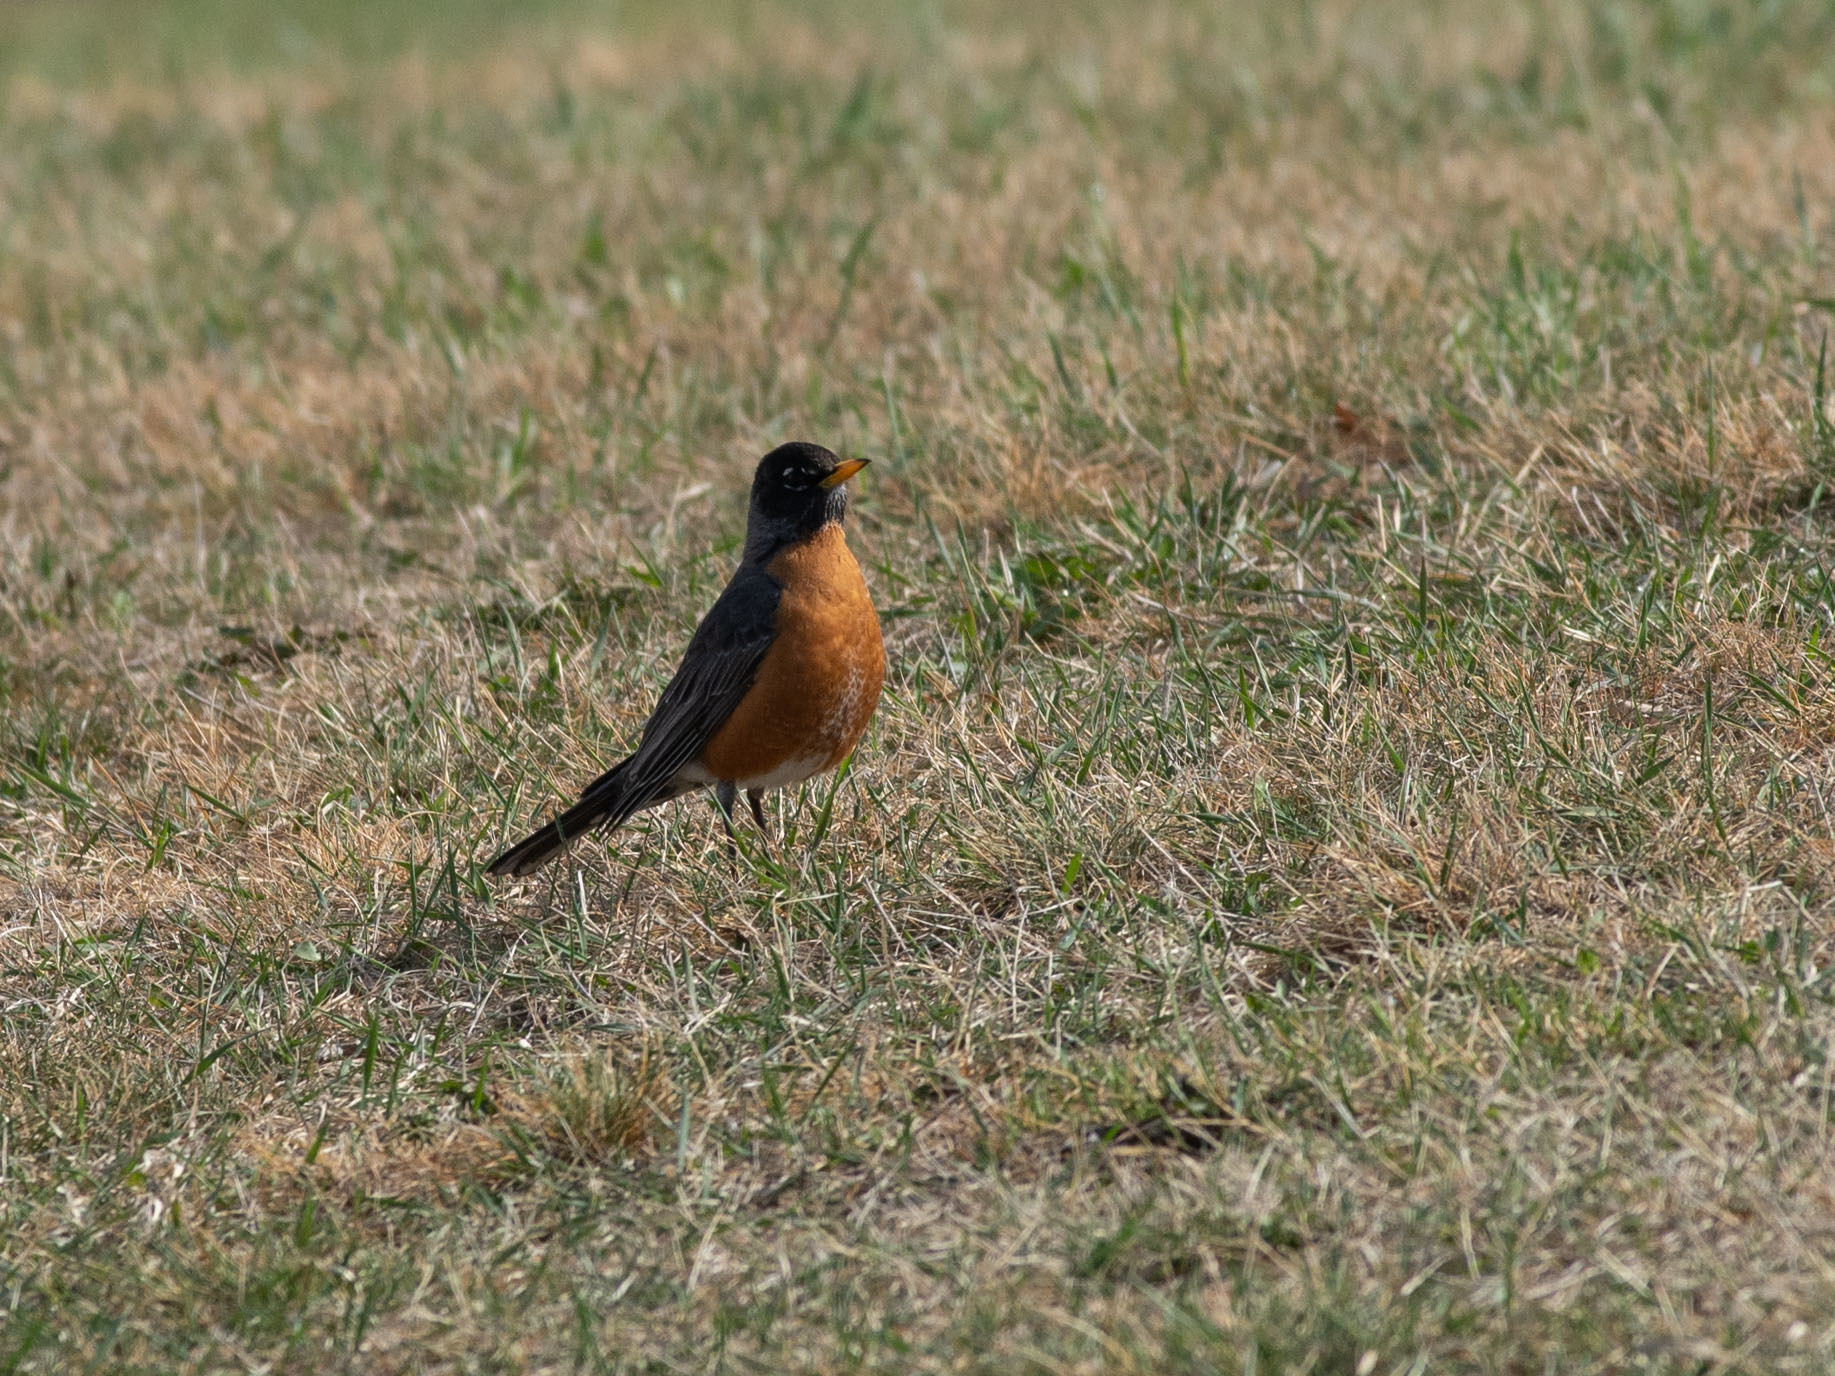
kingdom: Animalia
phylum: Chordata
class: Aves
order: Passeriformes
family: Turdidae
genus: Turdus
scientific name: Turdus migratorius
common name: American robin
